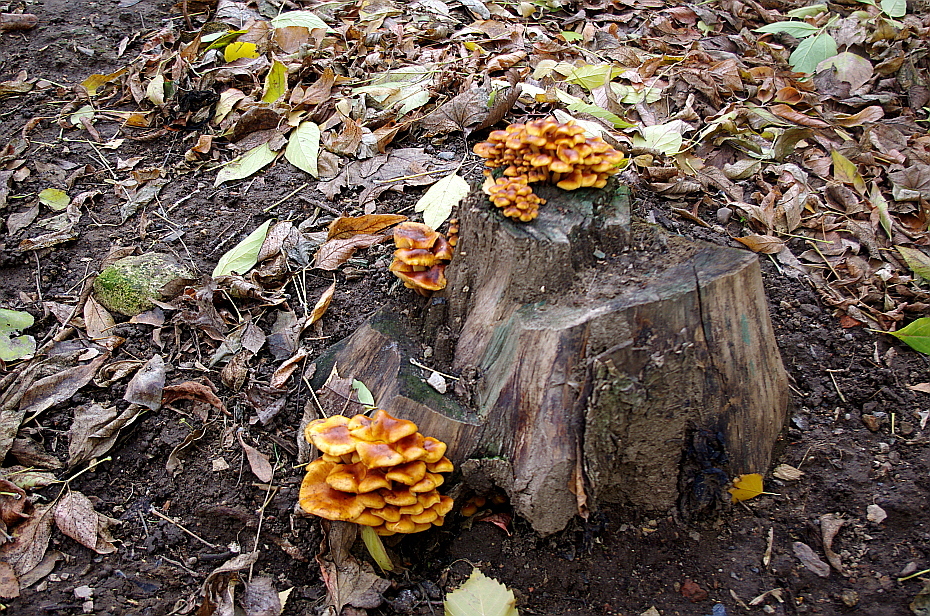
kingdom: Fungi
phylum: Basidiomycota
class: Agaricomycetes
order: Agaricales
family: Physalacriaceae
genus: Flammulina
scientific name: Flammulina
